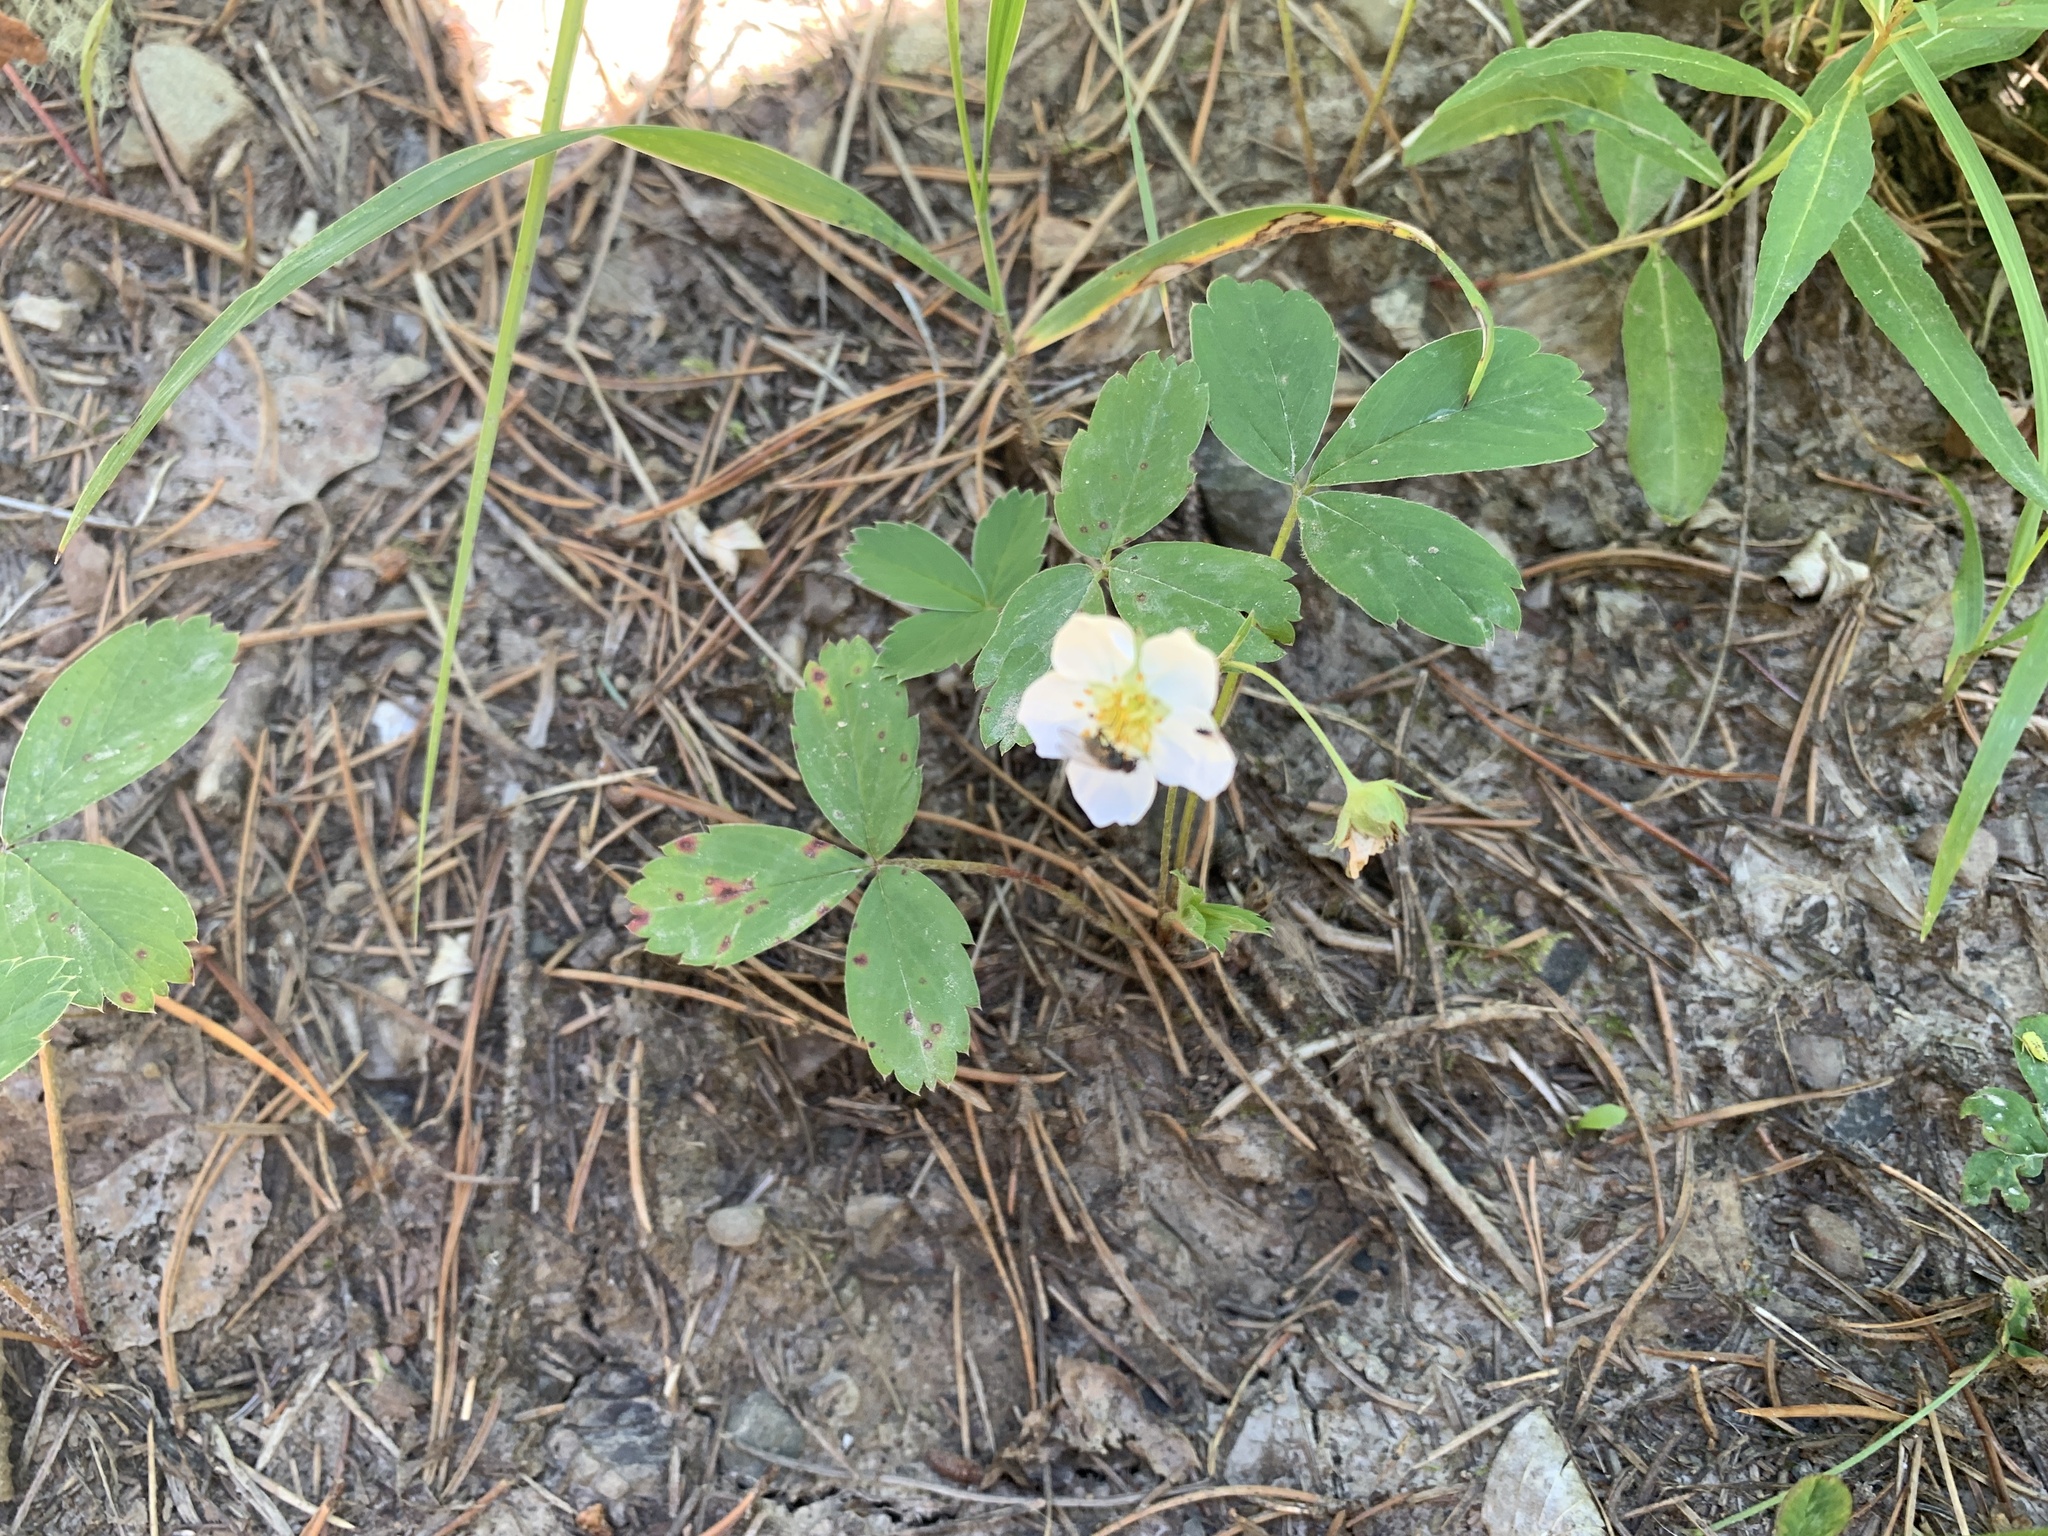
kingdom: Plantae
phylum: Tracheophyta
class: Magnoliopsida
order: Rosales
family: Rosaceae
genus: Fragaria
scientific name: Fragaria virginiana
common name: Thickleaved wild strawberry
